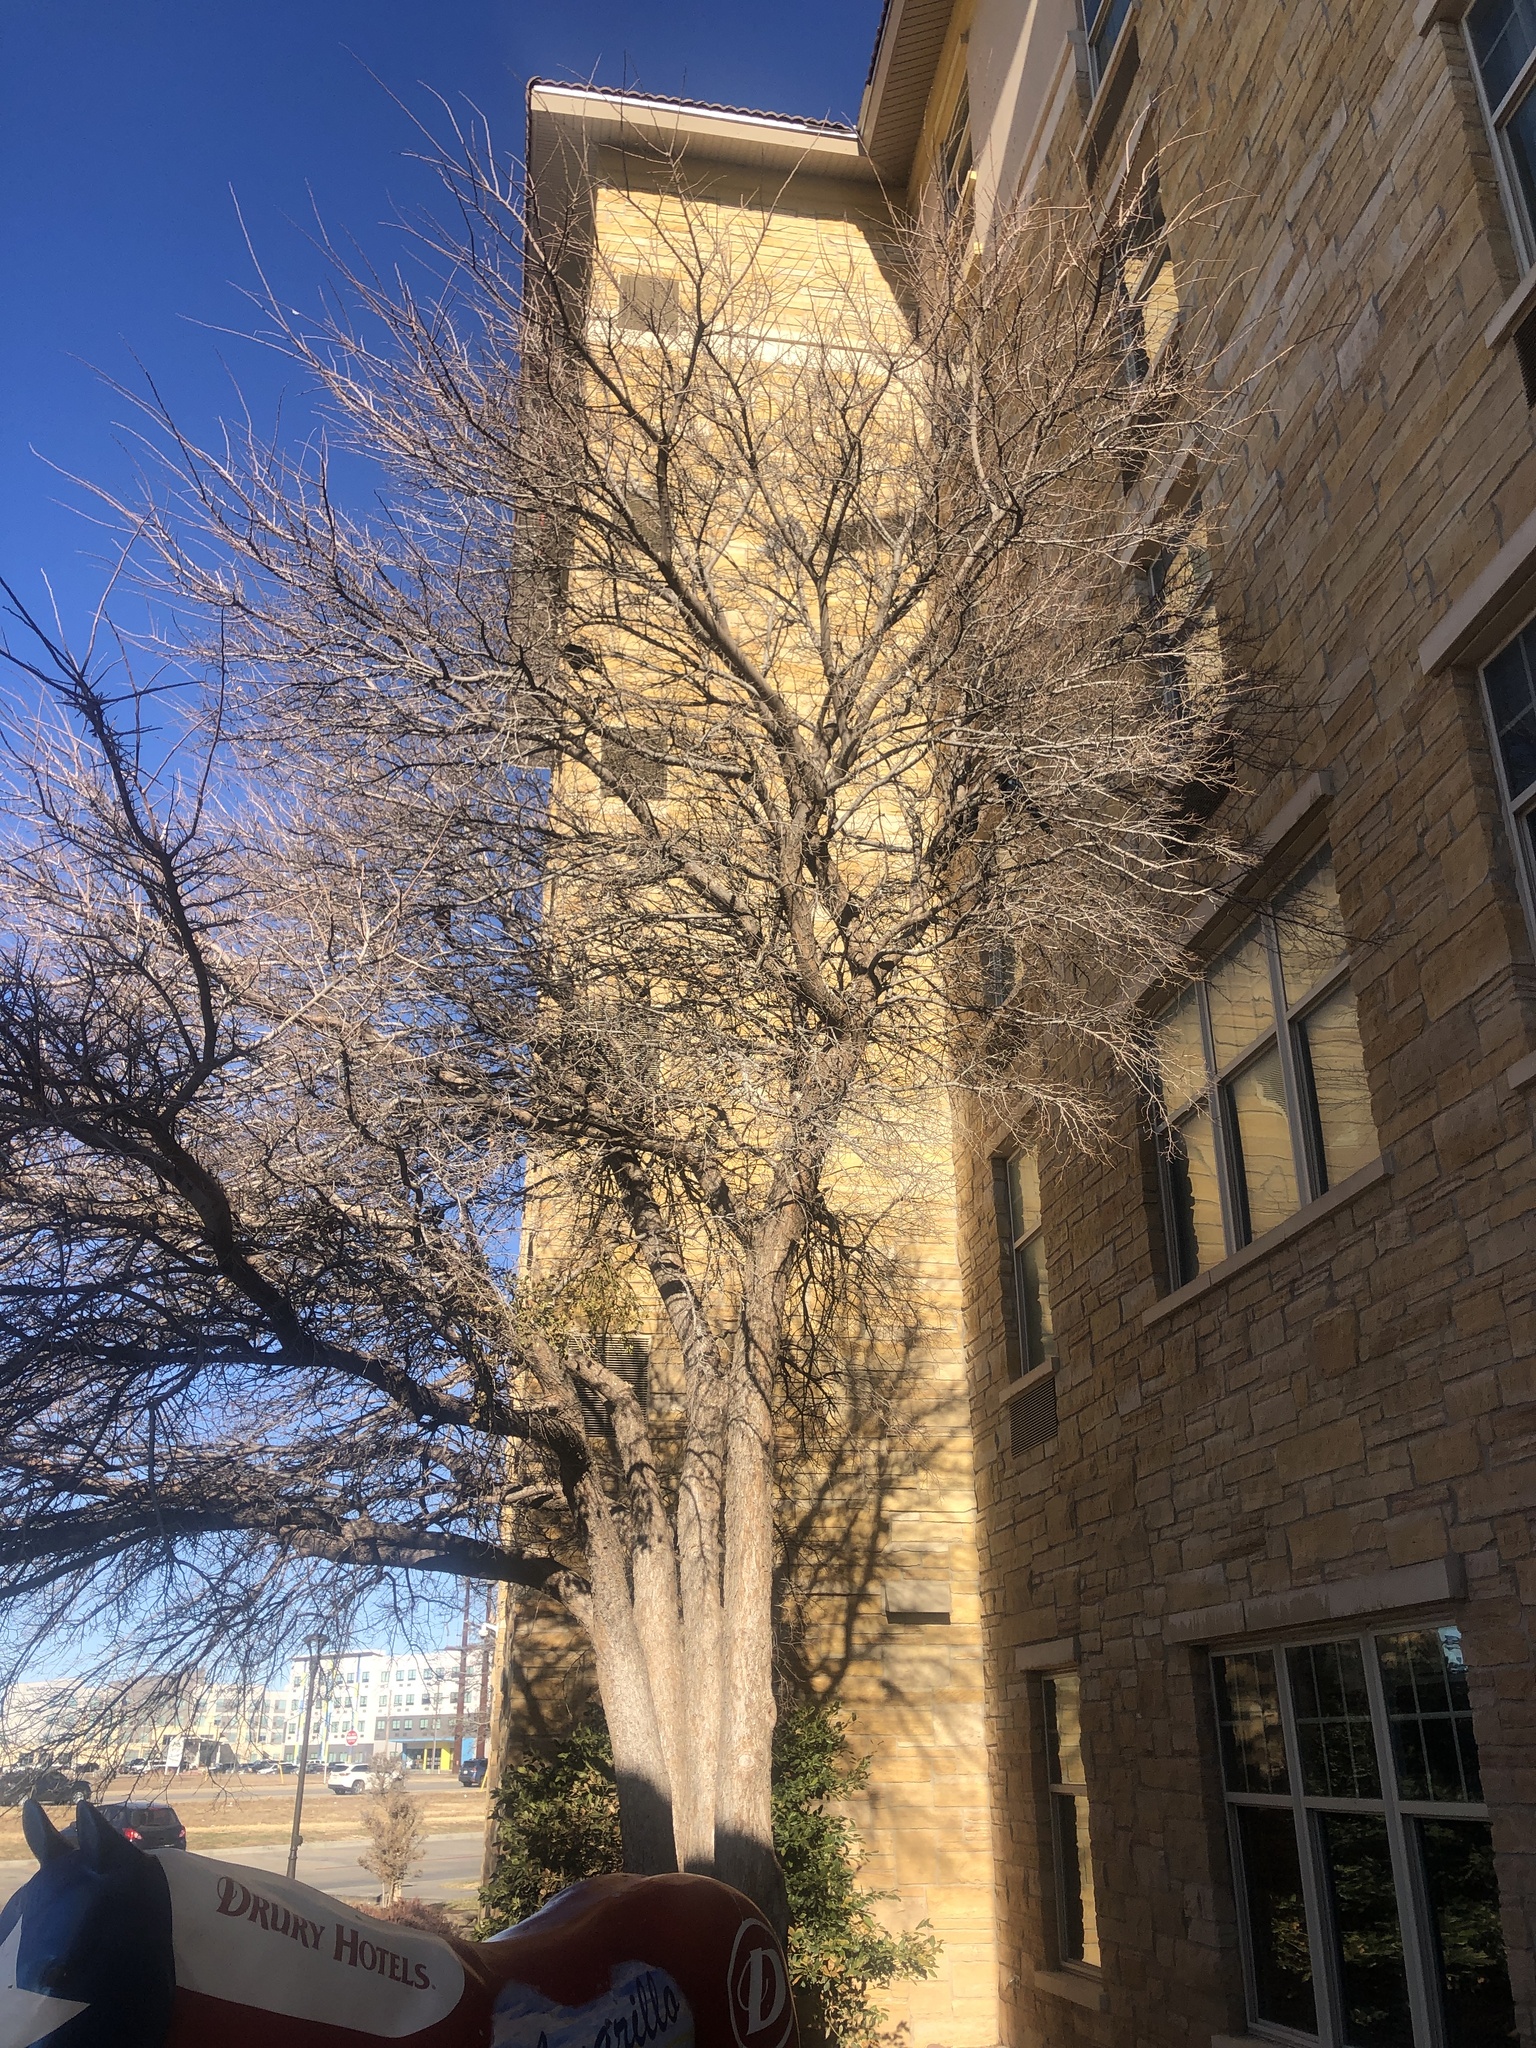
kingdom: Animalia
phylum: Chordata
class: Aves
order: Passeriformes
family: Icteridae
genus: Quiscalus
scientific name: Quiscalus mexicanus
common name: Great-tailed grackle
